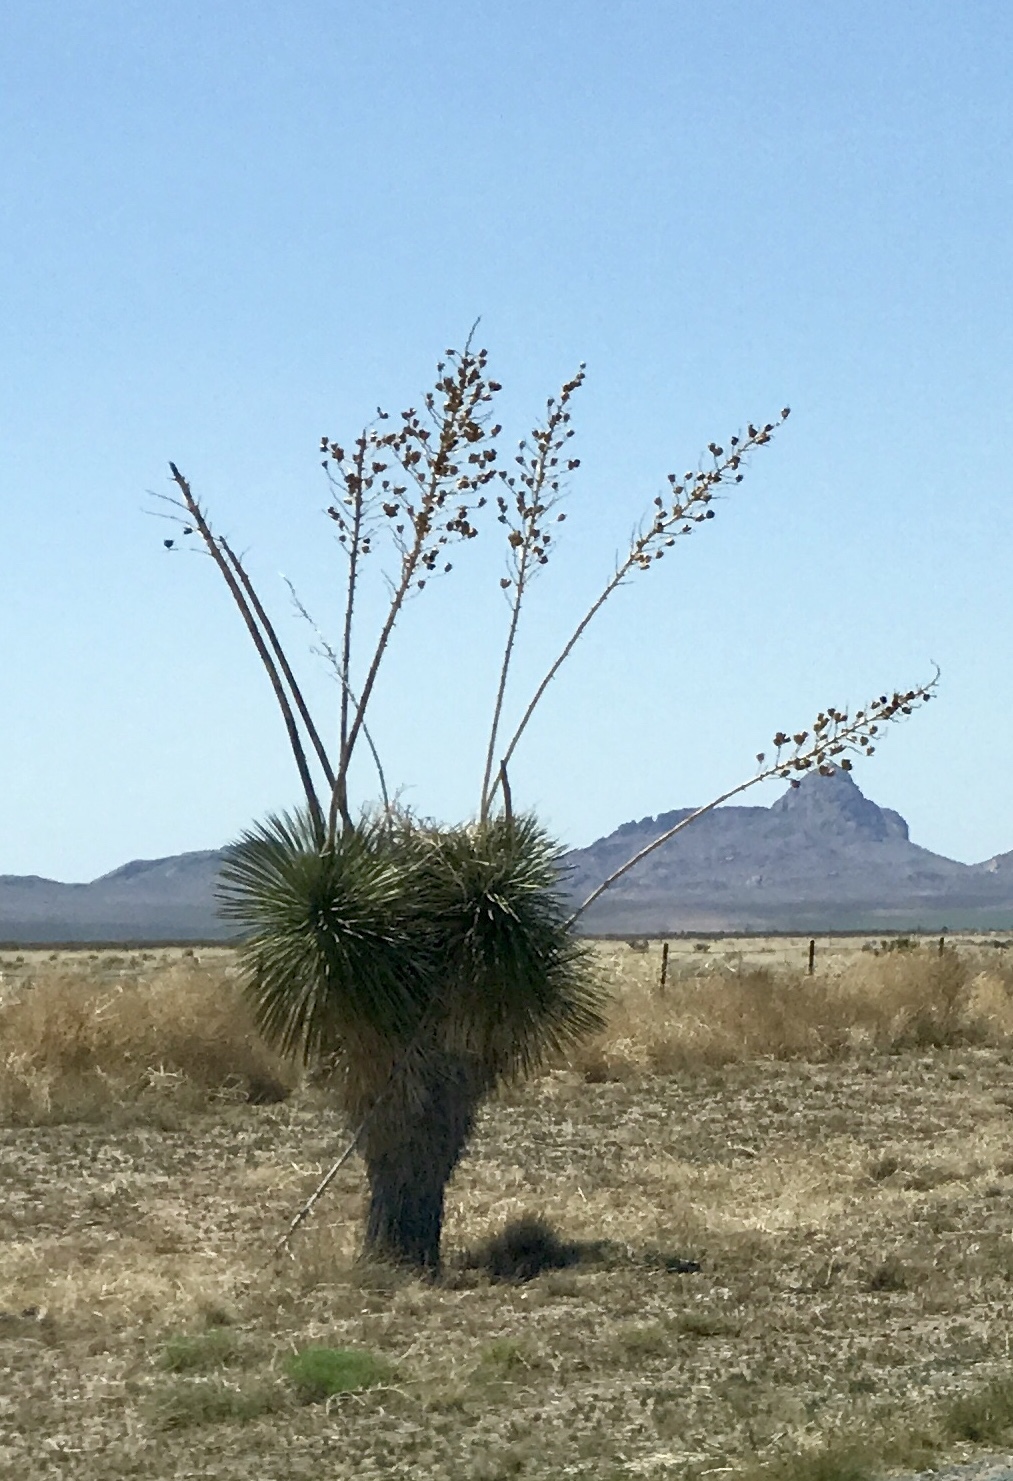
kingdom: Plantae
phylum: Tracheophyta
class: Liliopsida
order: Asparagales
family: Asparagaceae
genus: Yucca
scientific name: Yucca elata
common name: Palmella
